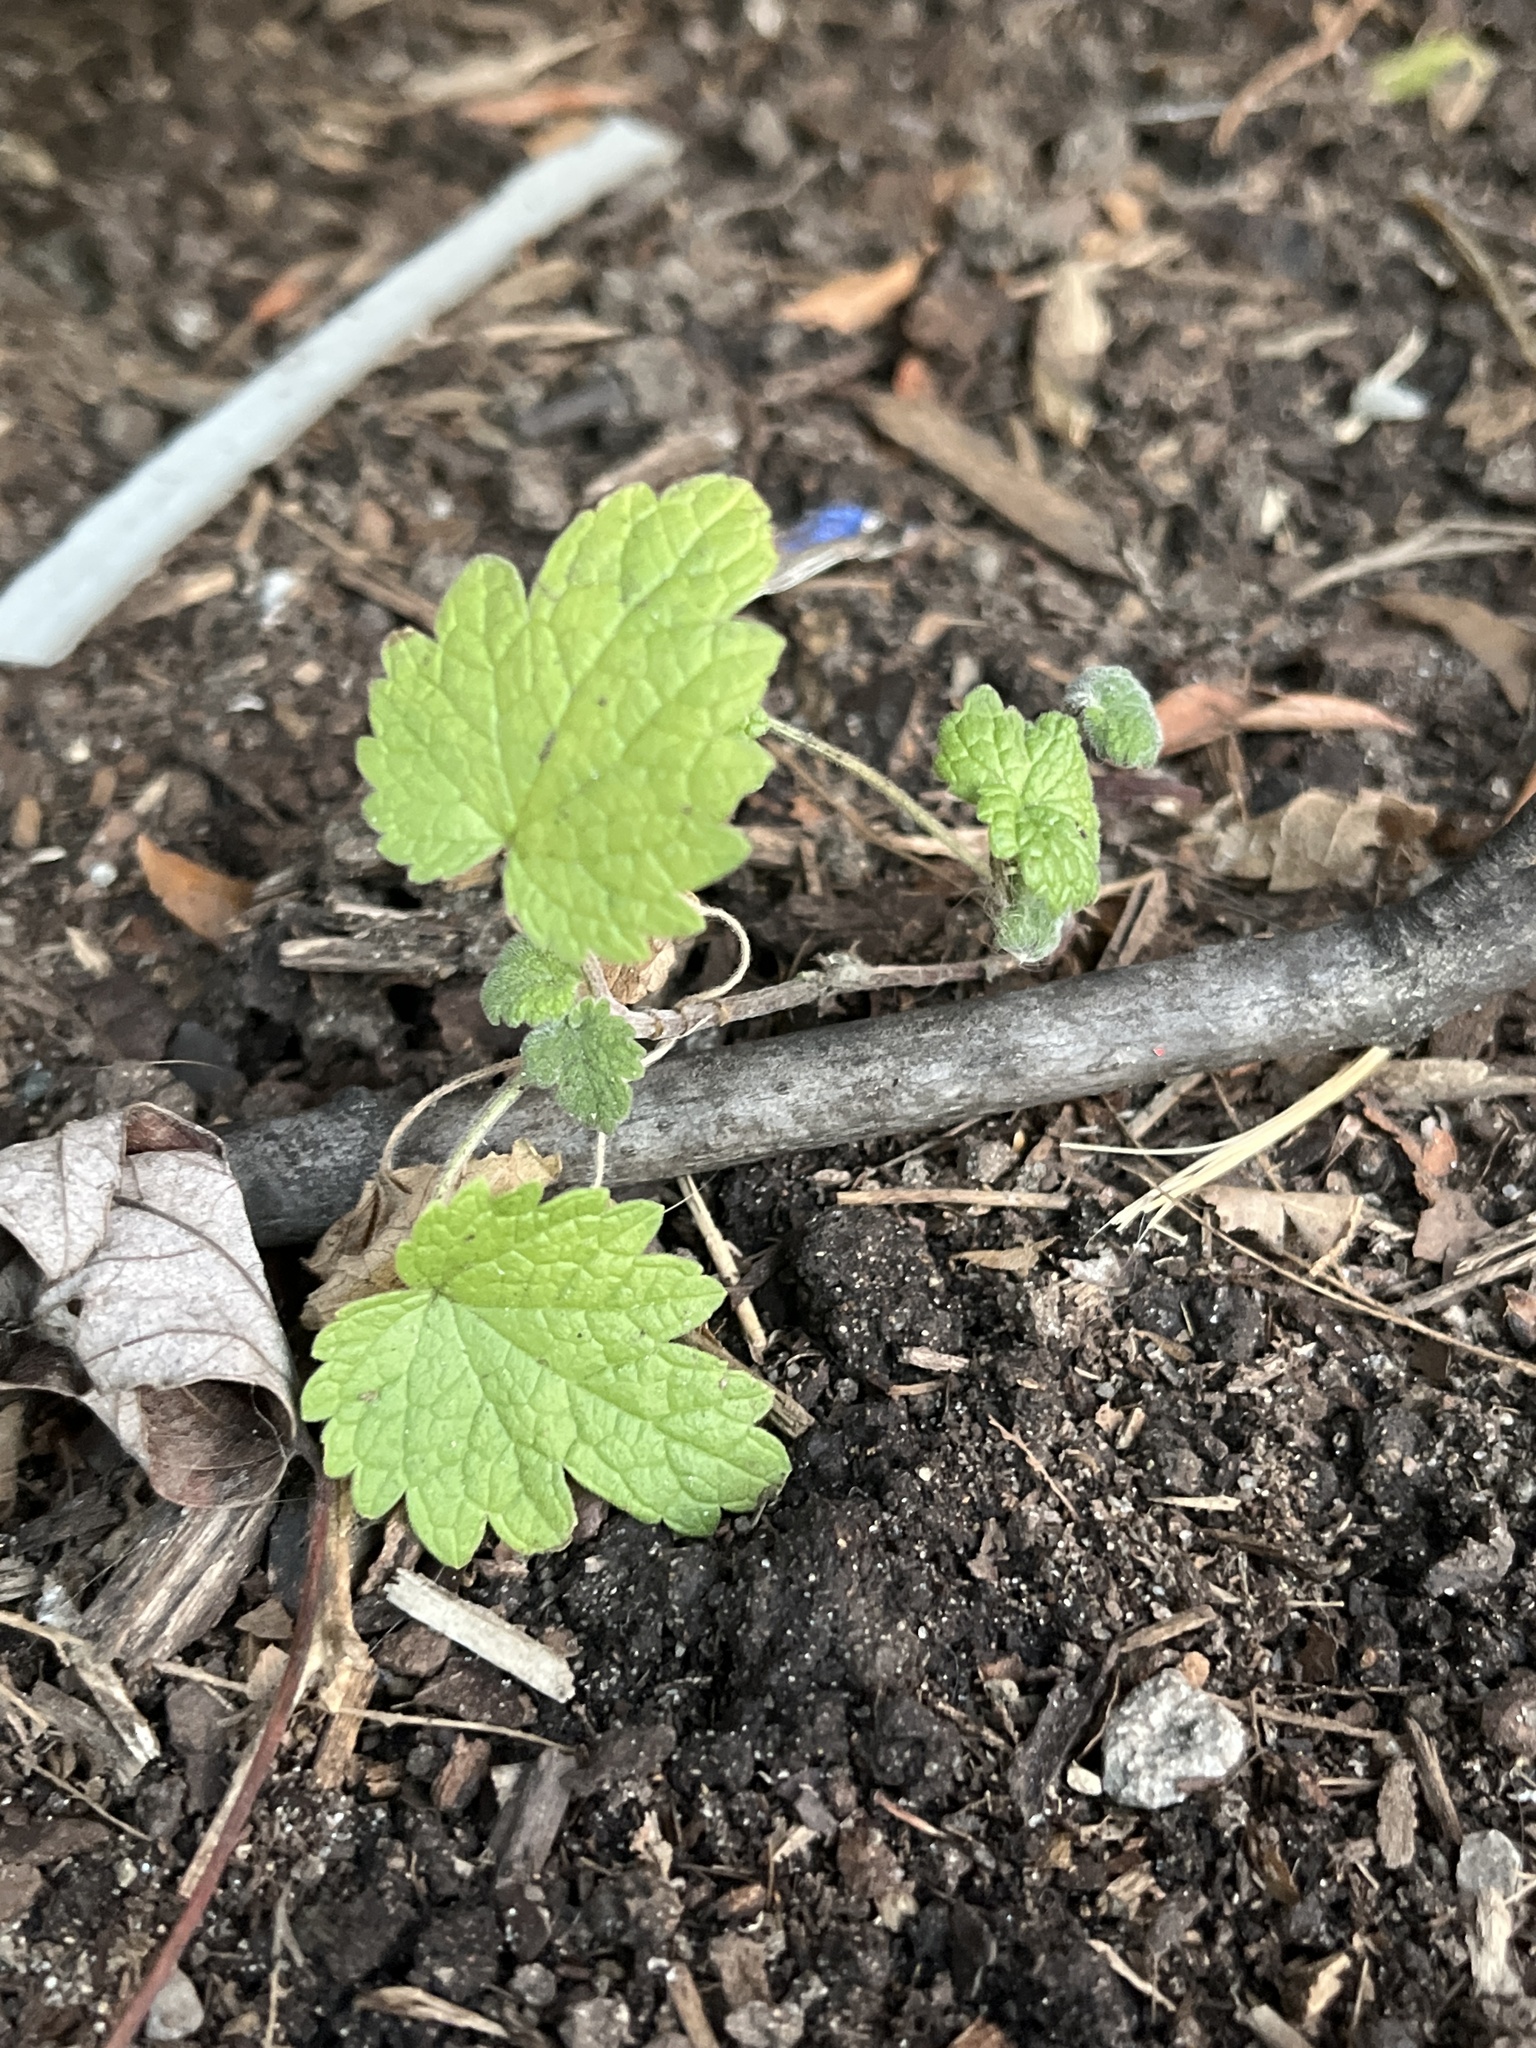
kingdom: Plantae
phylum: Tracheophyta
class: Magnoliopsida
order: Lamiales
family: Lamiaceae
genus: Leonurus
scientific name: Leonurus cardiaca
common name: Motherwort
